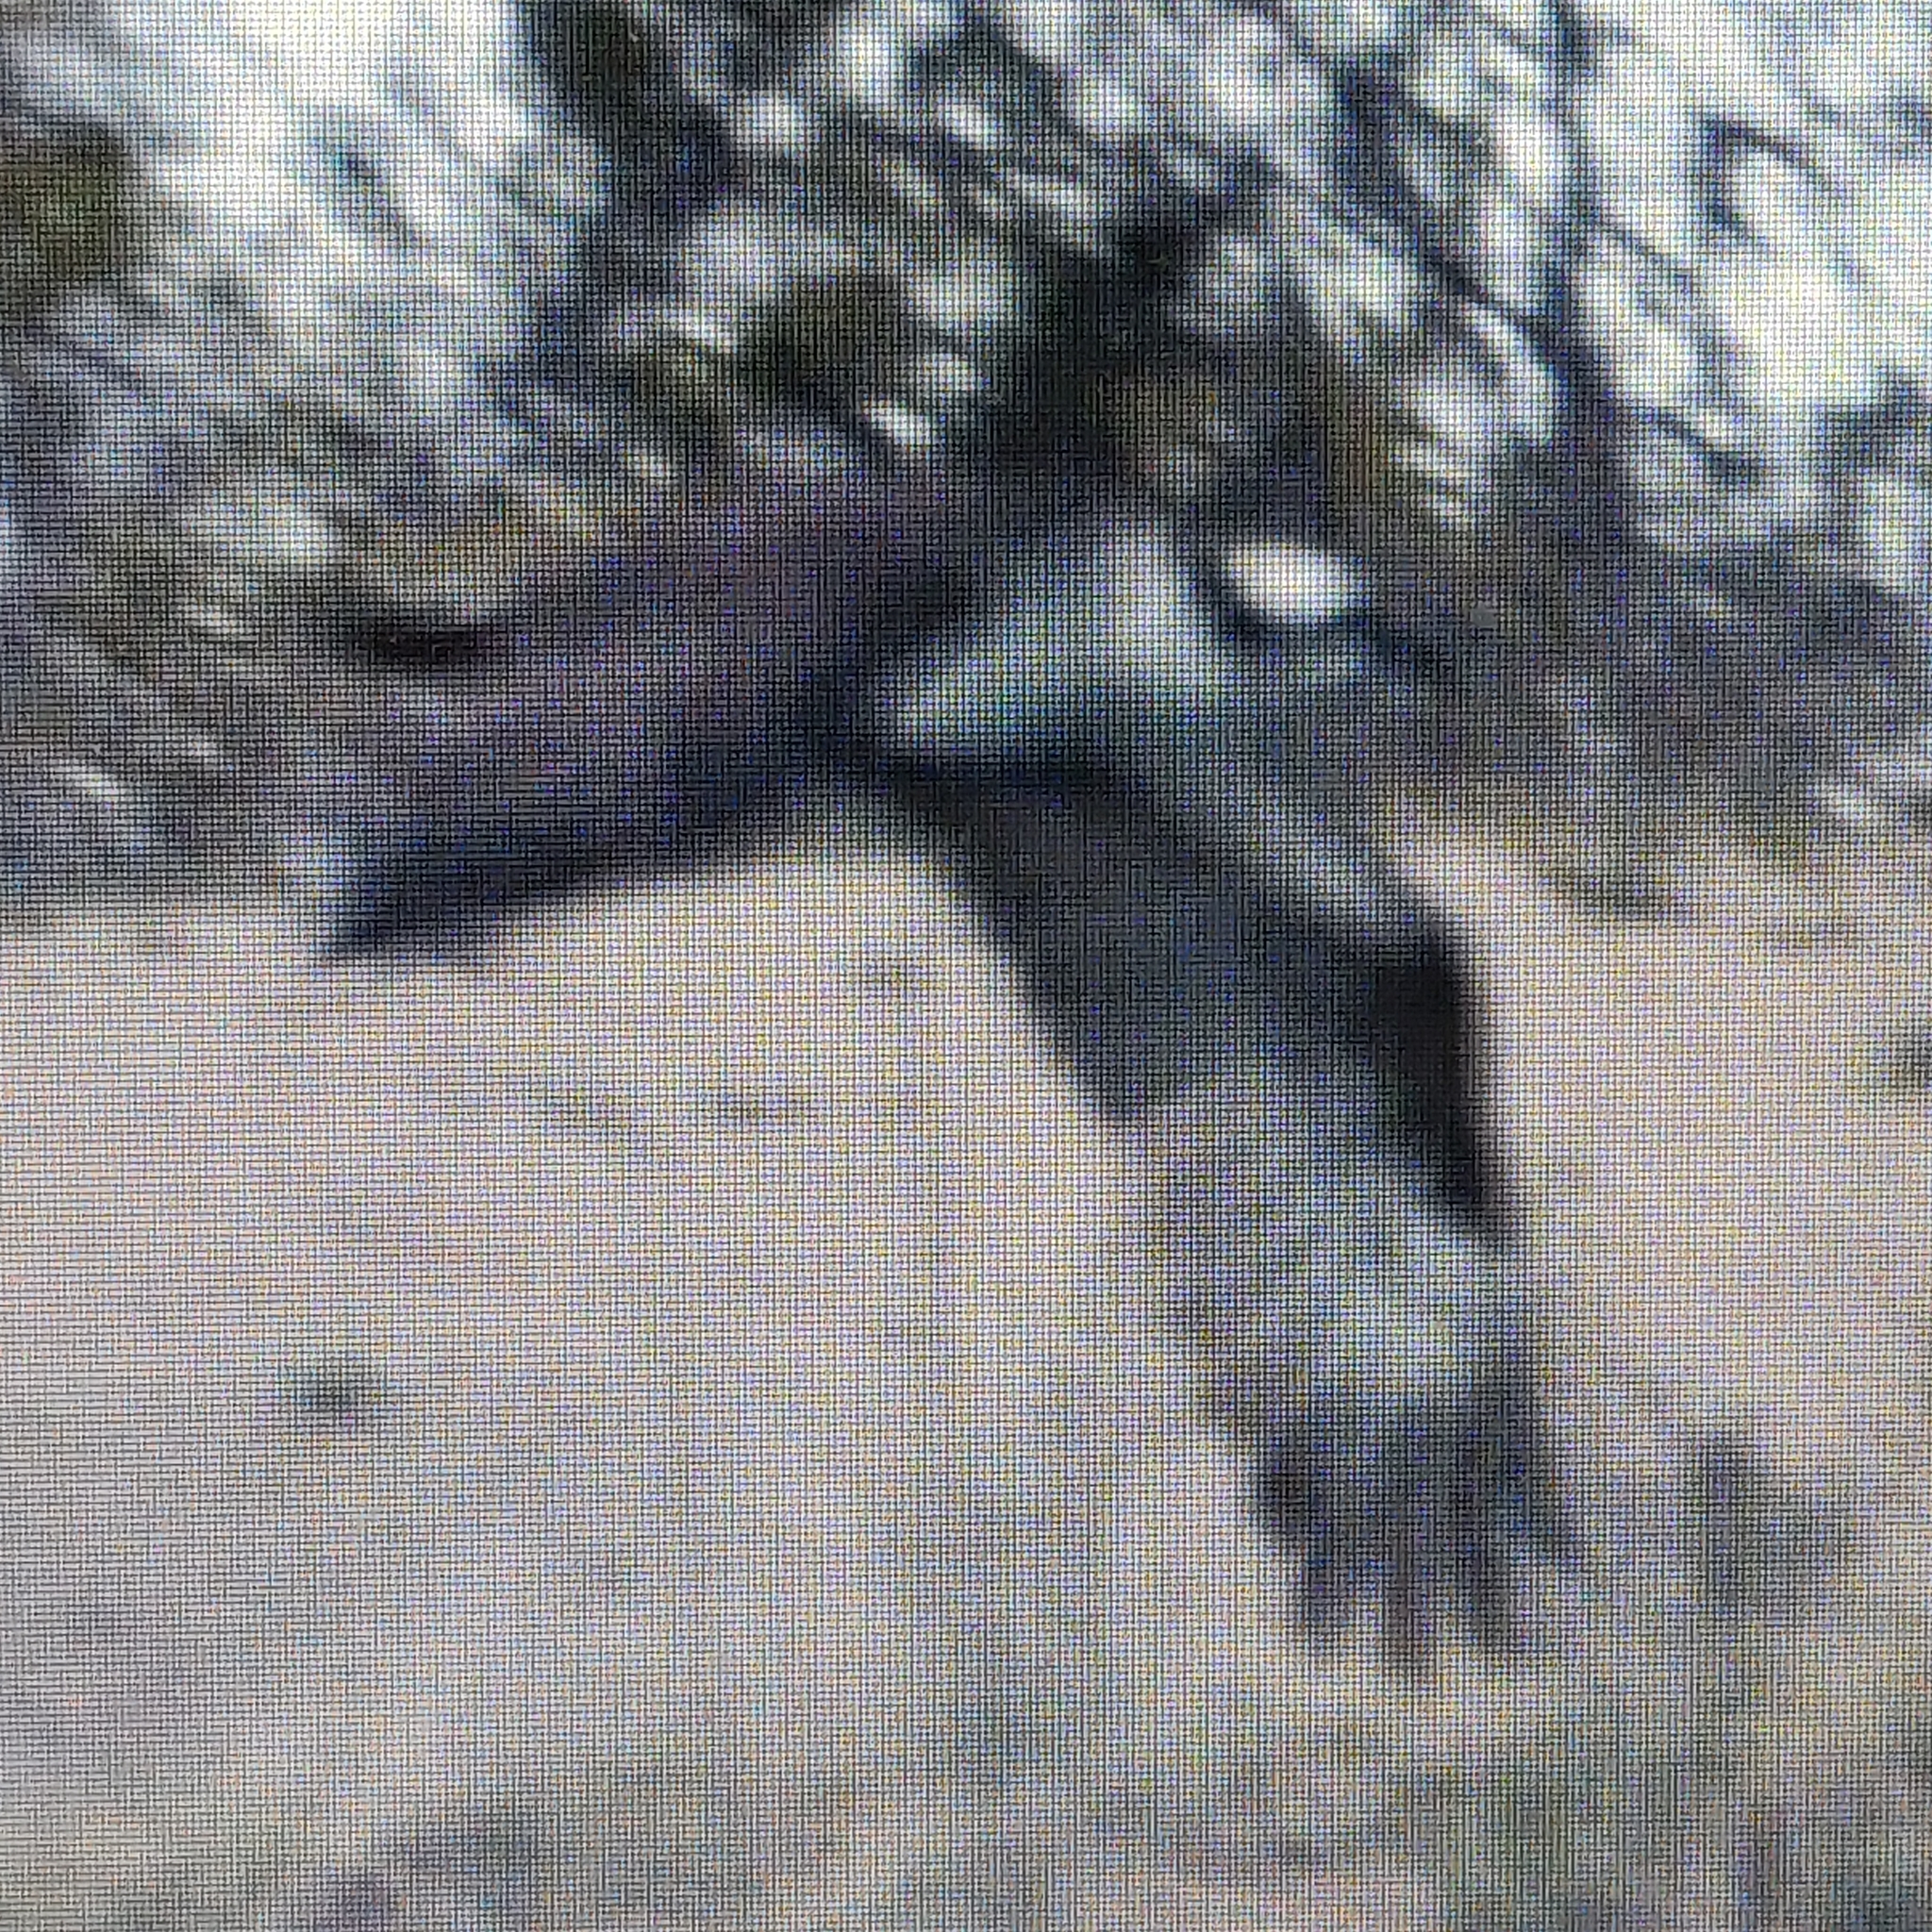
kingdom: Animalia
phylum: Chordata
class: Aves
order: Accipitriformes
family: Pandionidae
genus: Pandion
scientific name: Pandion haliaetus
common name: Osprey
